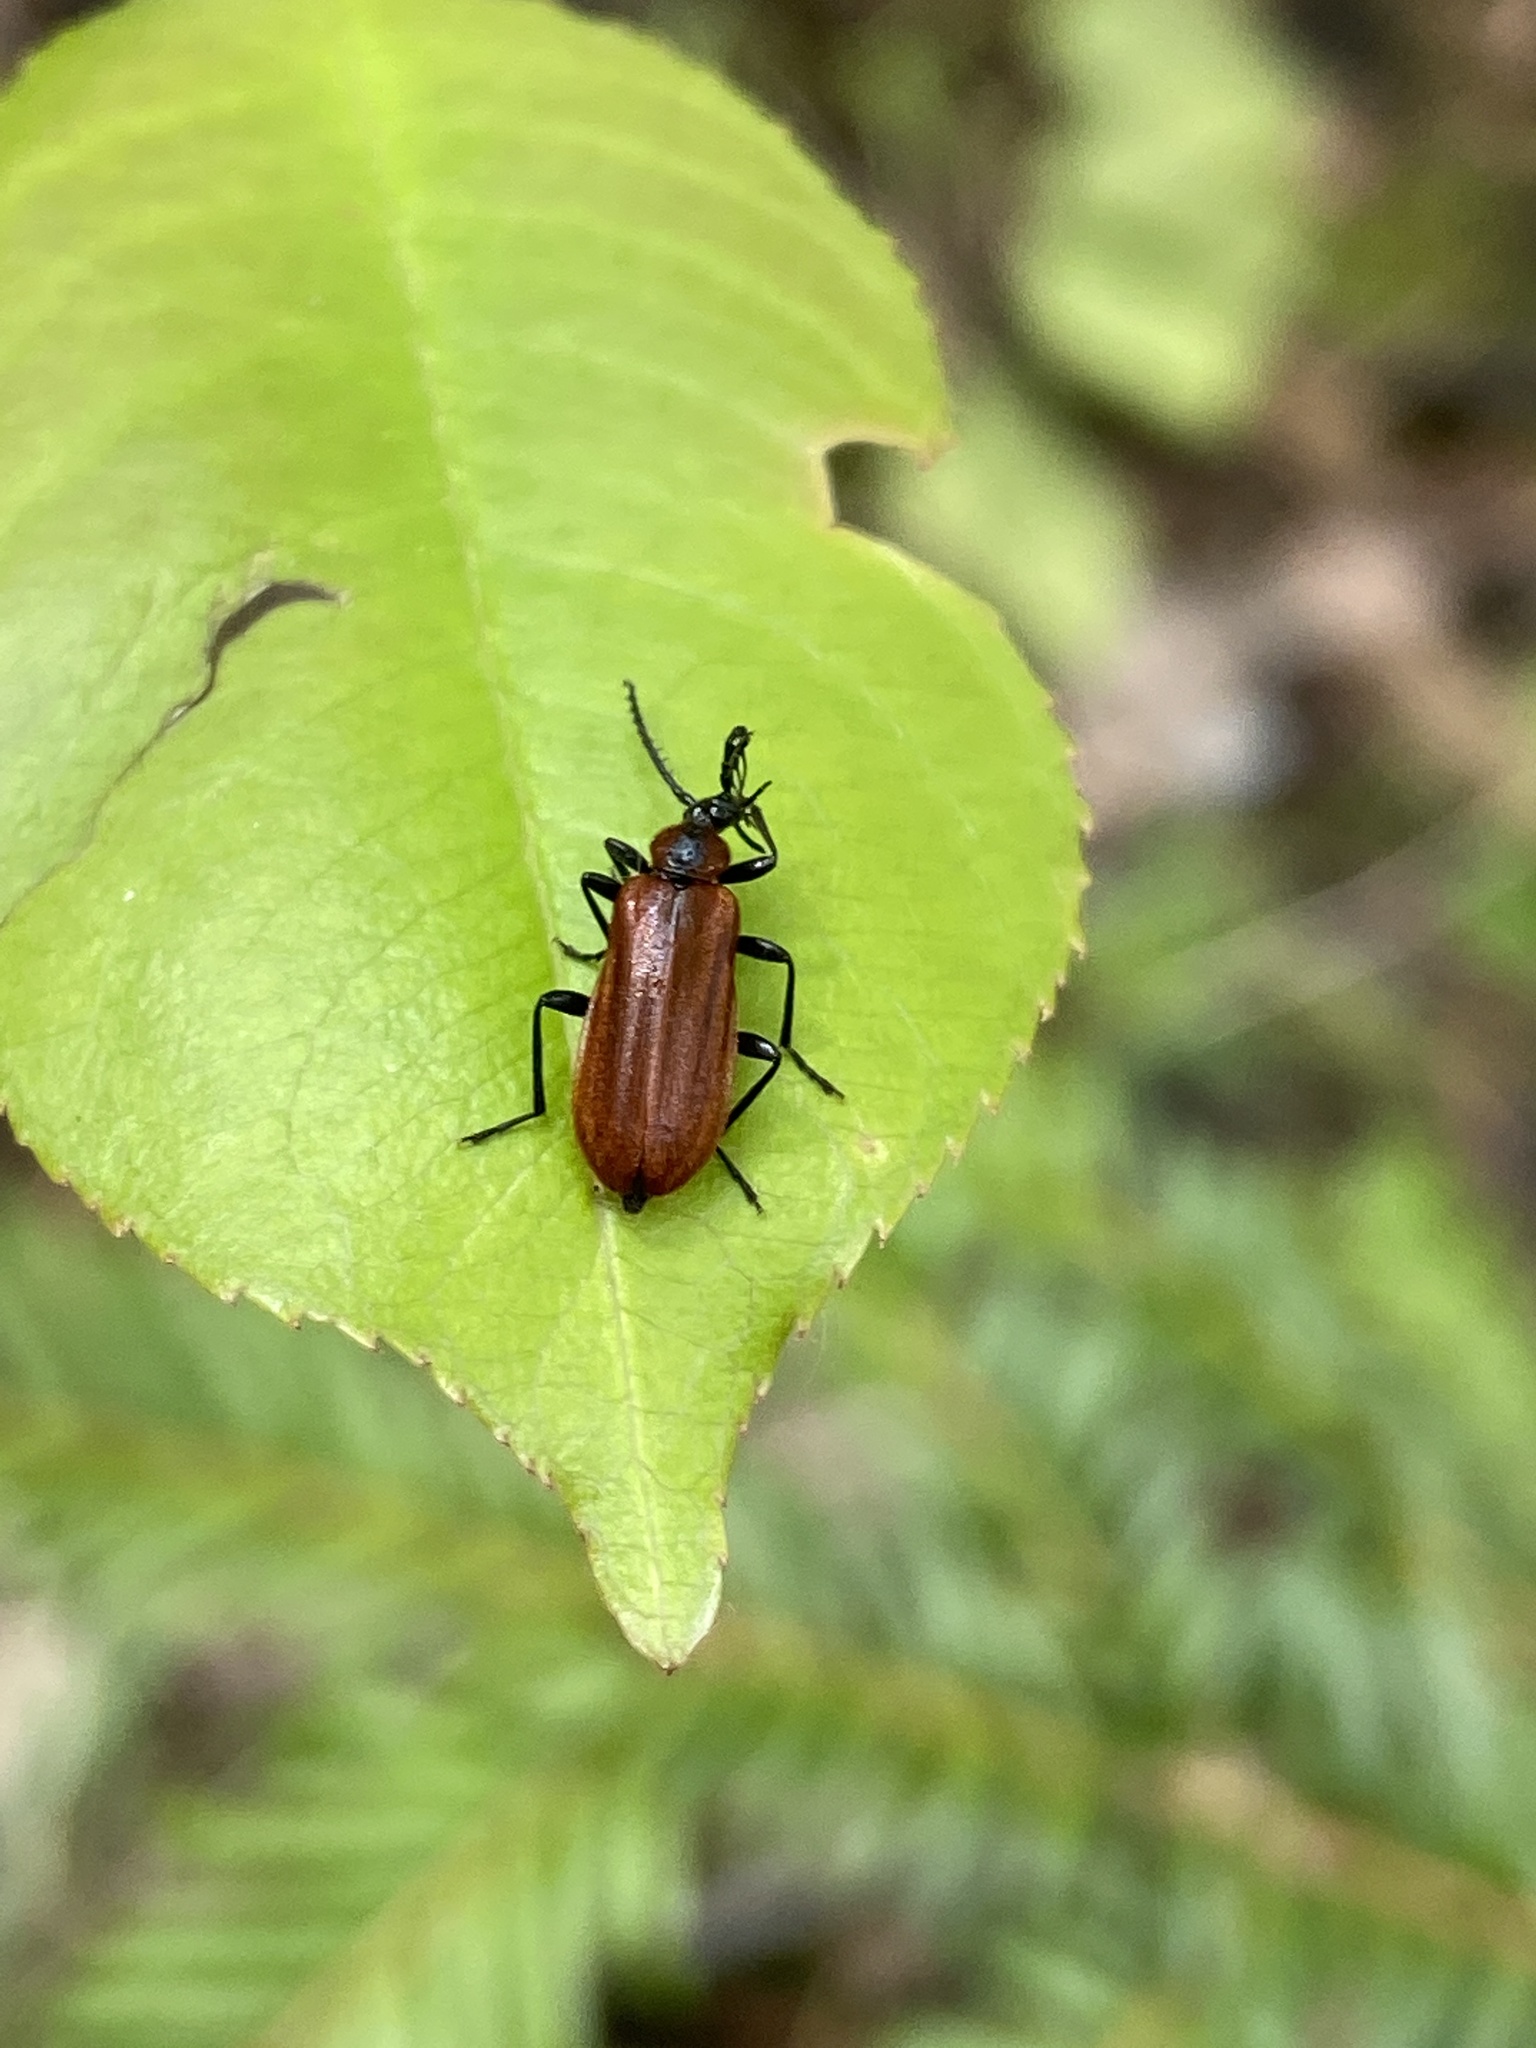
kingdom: Animalia
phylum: Arthropoda
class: Insecta
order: Coleoptera
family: Pyrochroidae
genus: Schizotus
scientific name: Schizotus pectinicornis
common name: Scarce cardinal beetle
